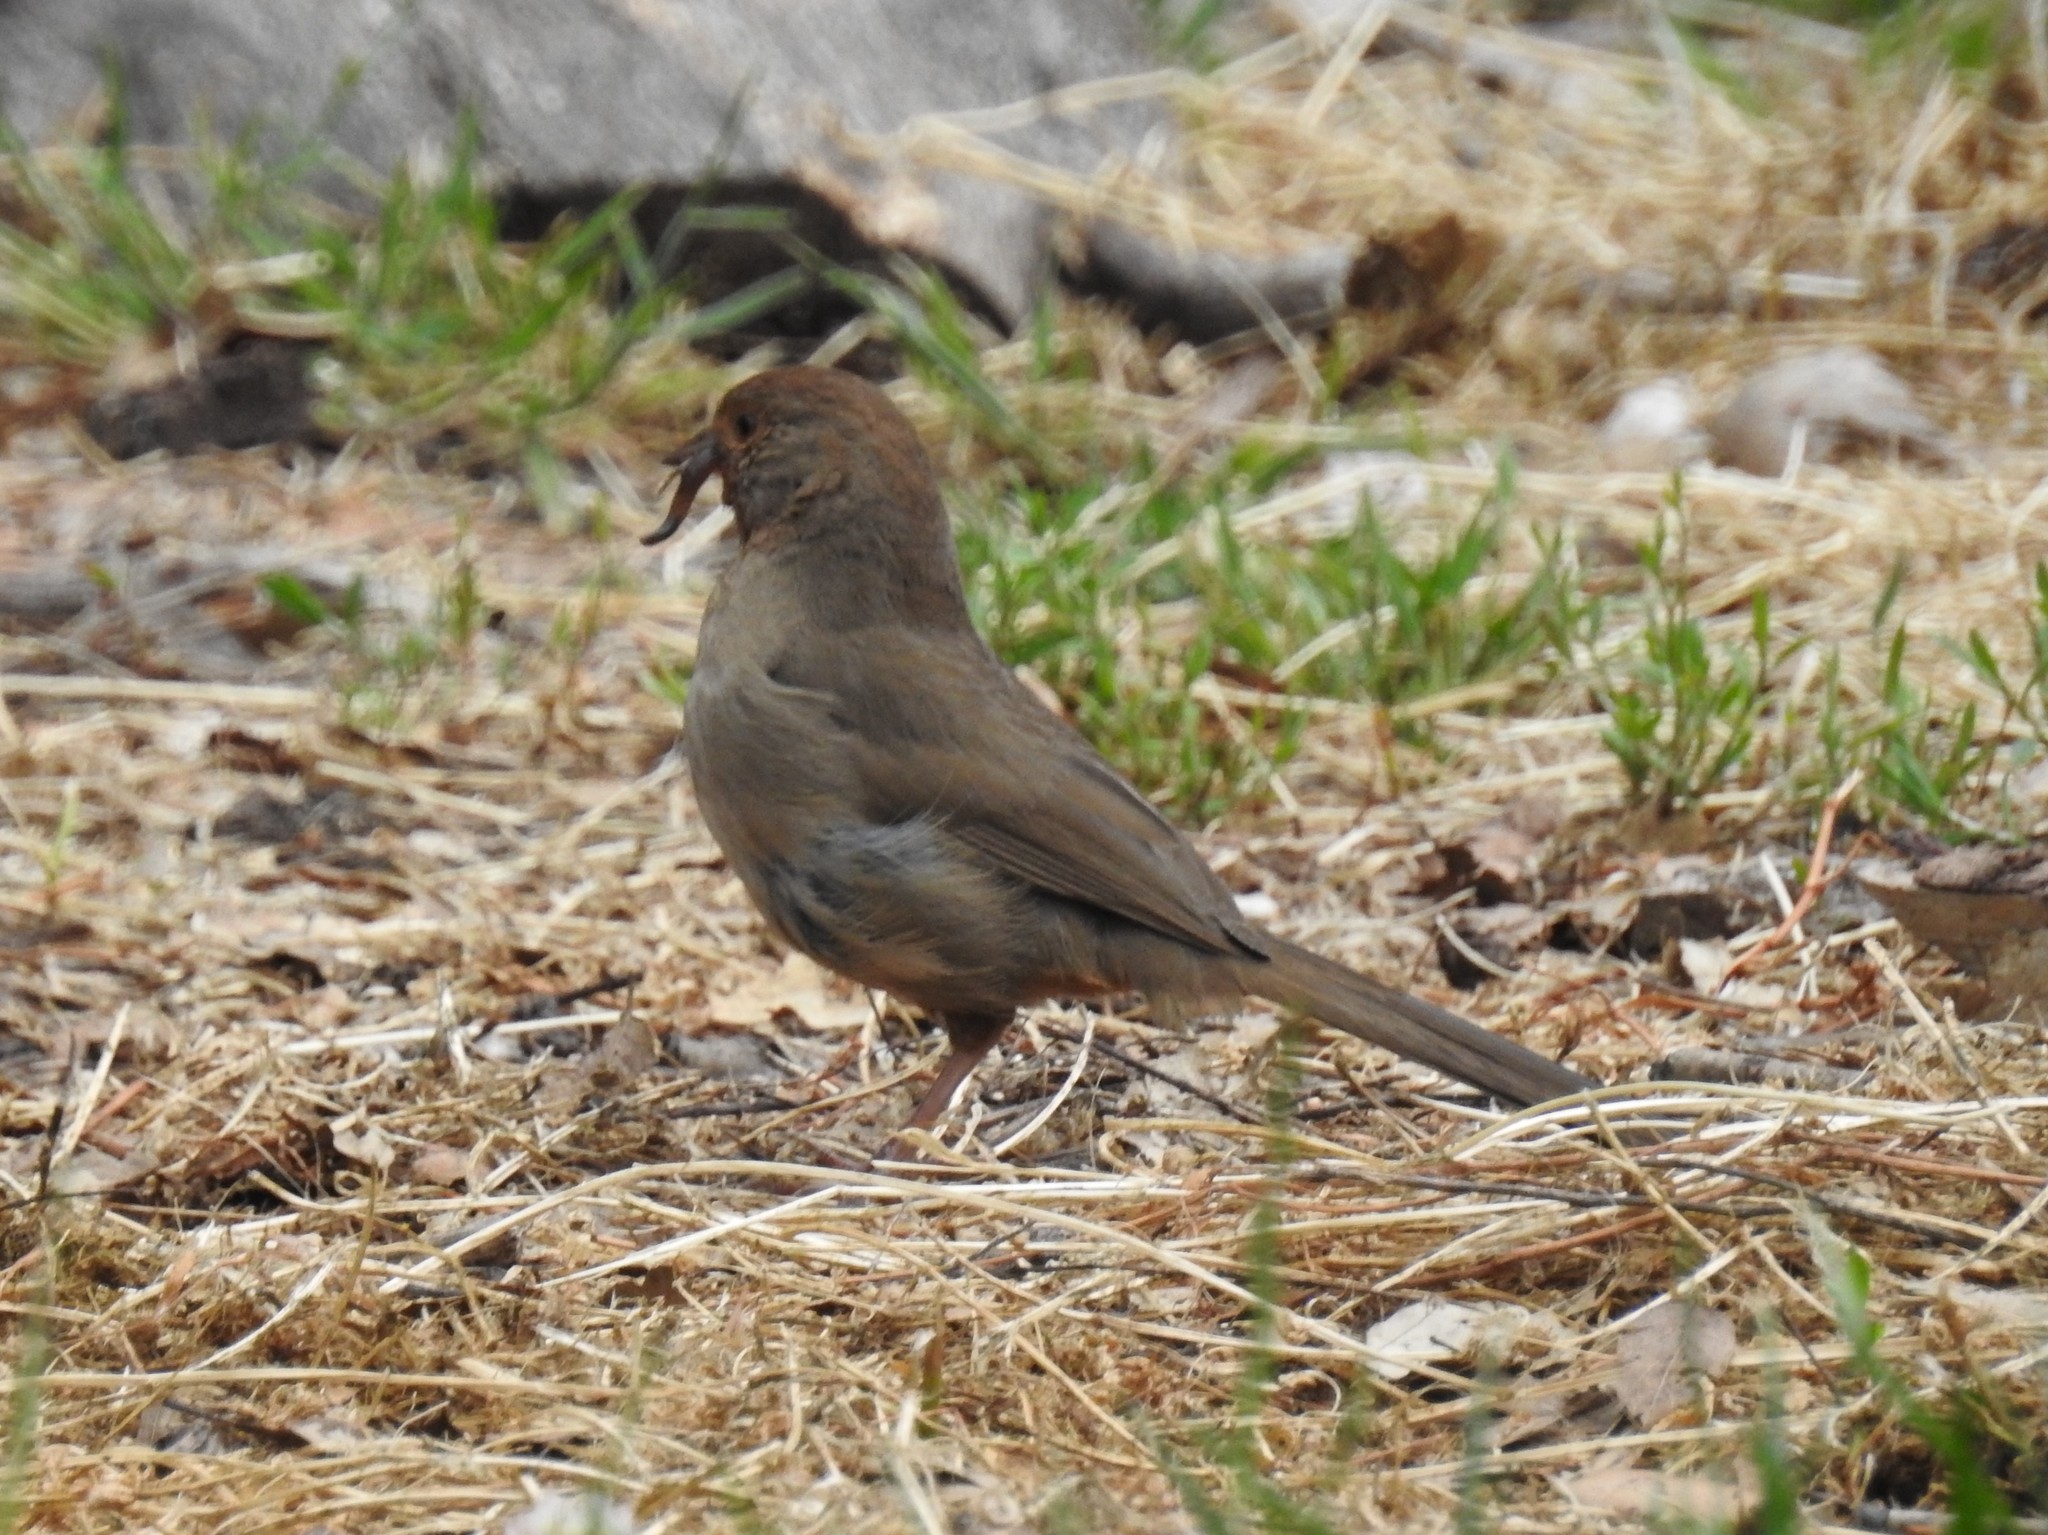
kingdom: Animalia
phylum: Chordata
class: Aves
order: Passeriformes
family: Passerellidae
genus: Melozone
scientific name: Melozone crissalis
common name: California towhee
